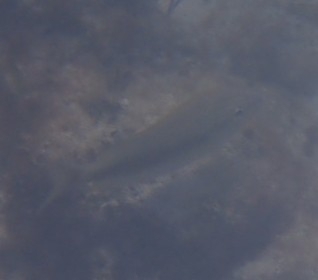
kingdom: Animalia
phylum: Chordata
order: Perciformes
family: Haemulidae
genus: Haemulon
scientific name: Haemulon plumierii
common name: White grunt
